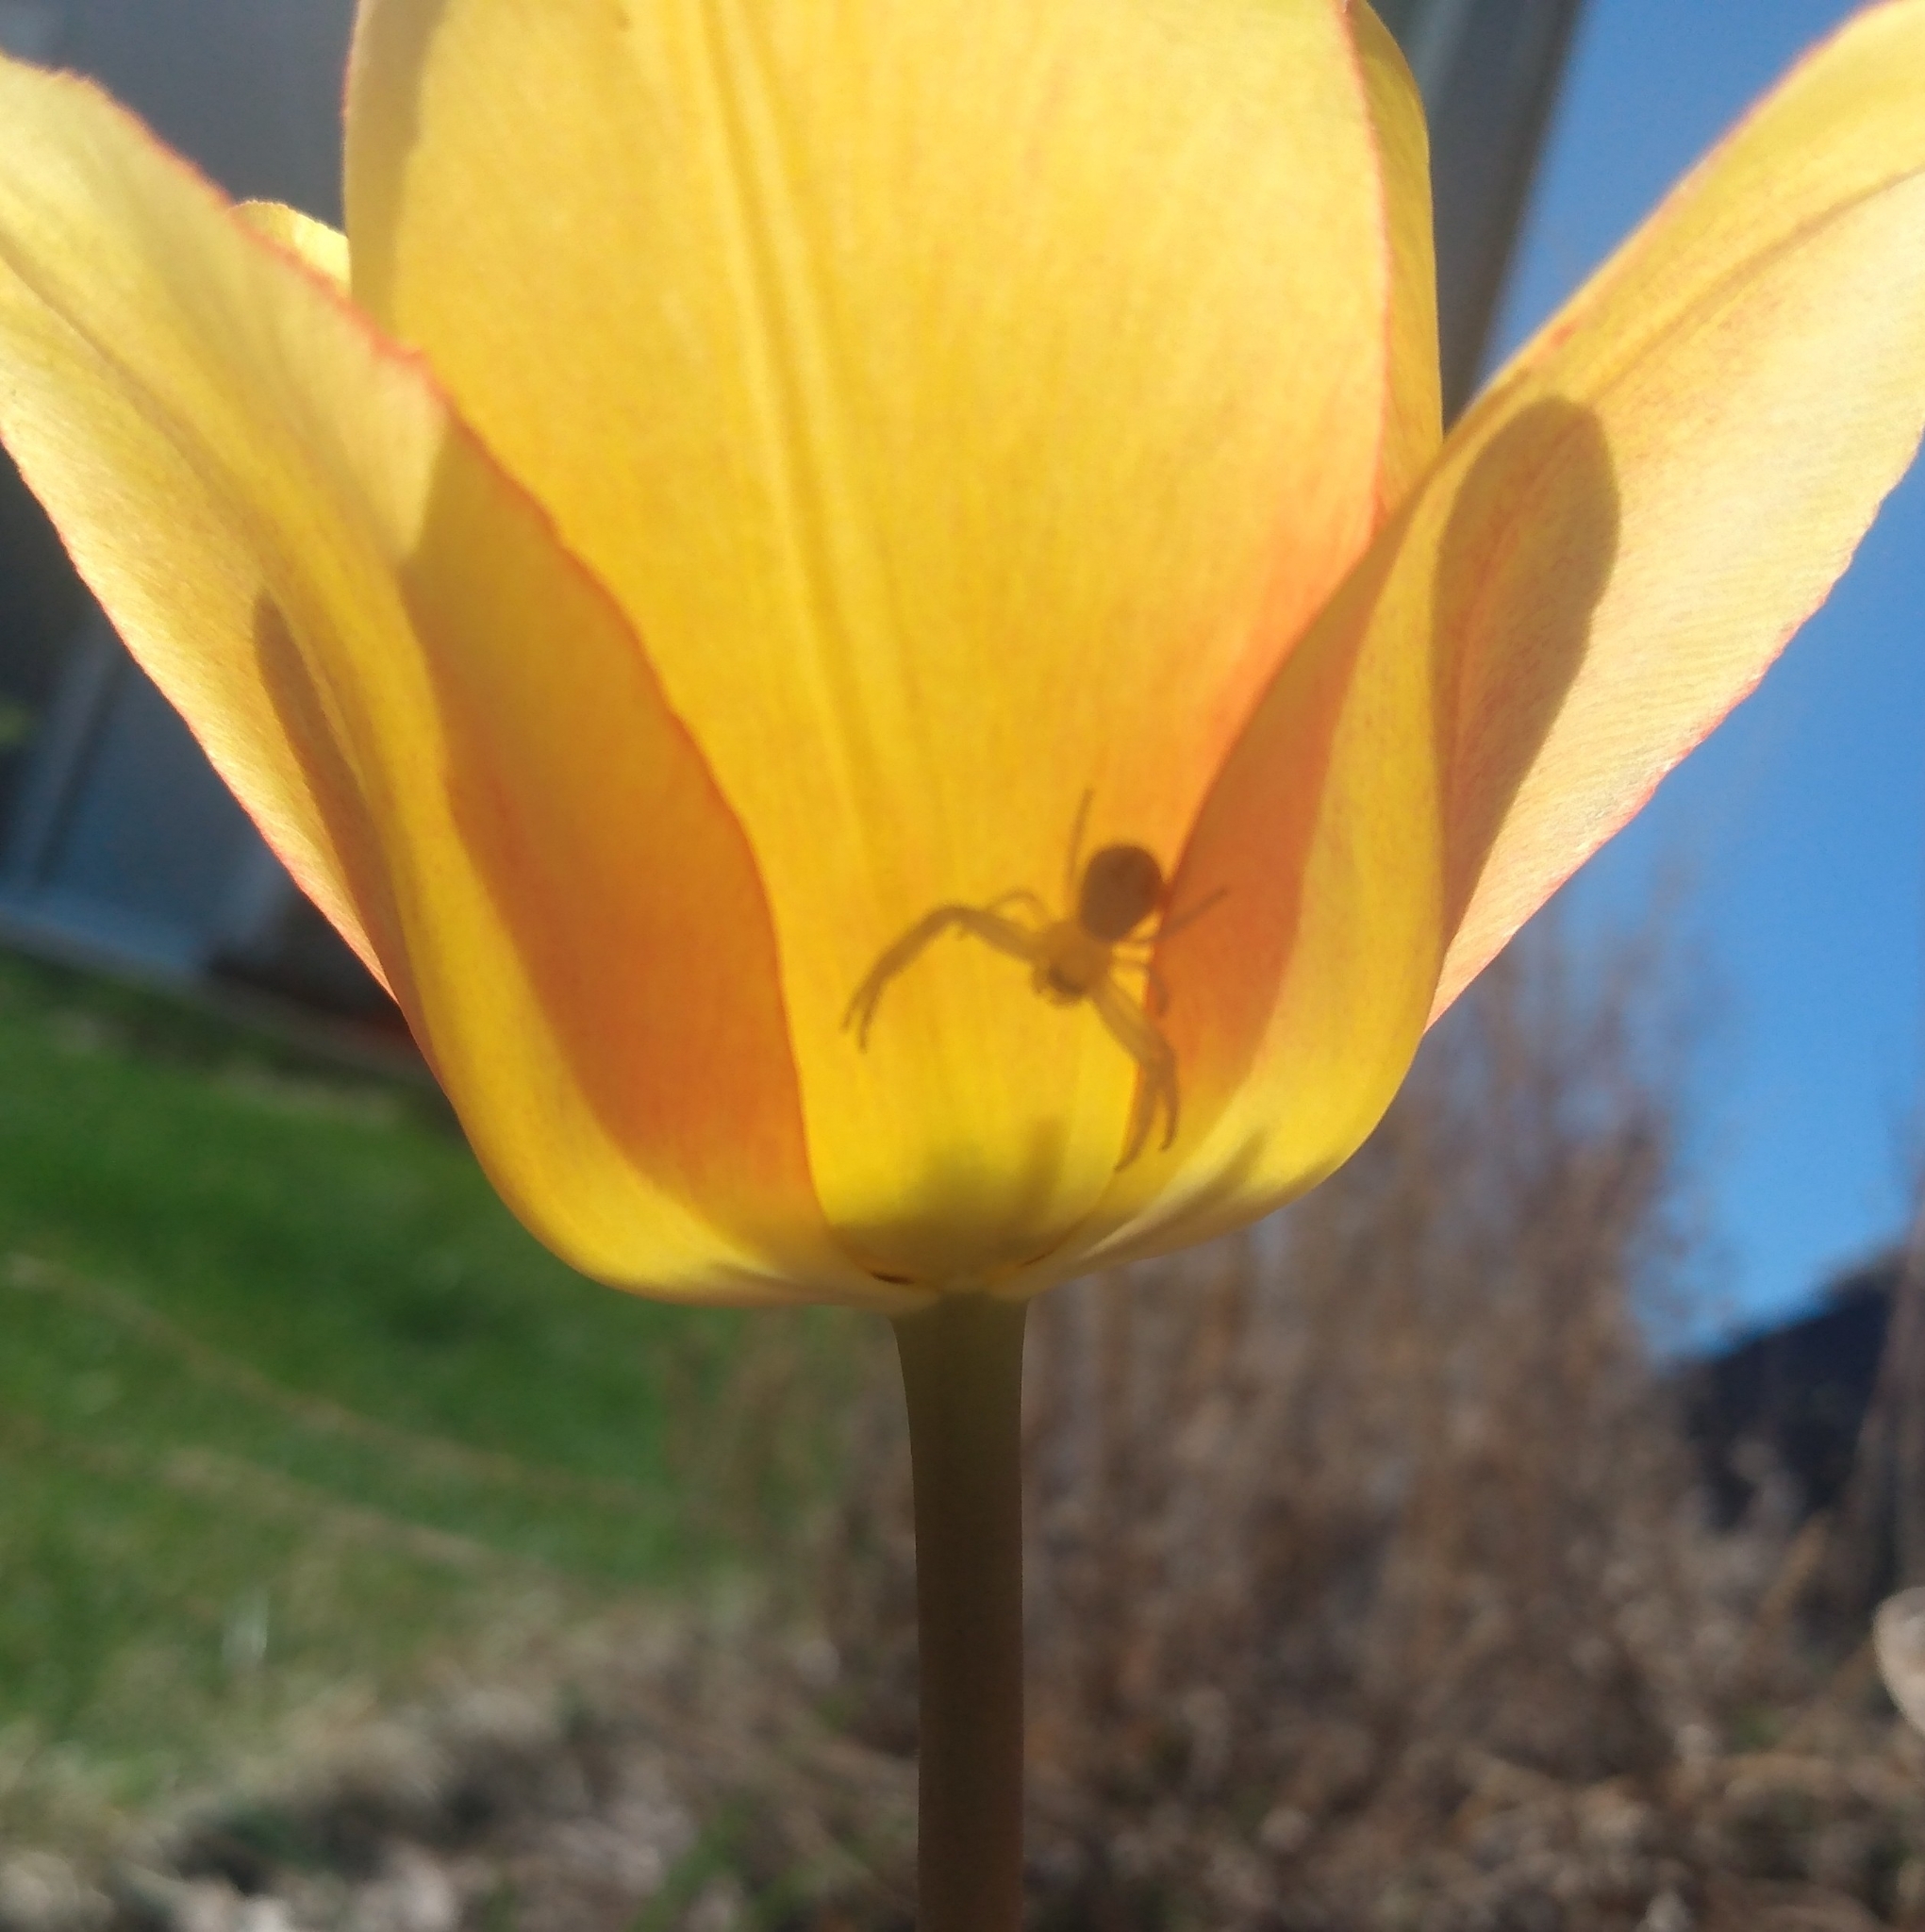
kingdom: Animalia
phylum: Arthropoda
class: Arachnida
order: Araneae
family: Thomisidae
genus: Misumena
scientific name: Misumena vatia
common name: Goldenrod crab spider
